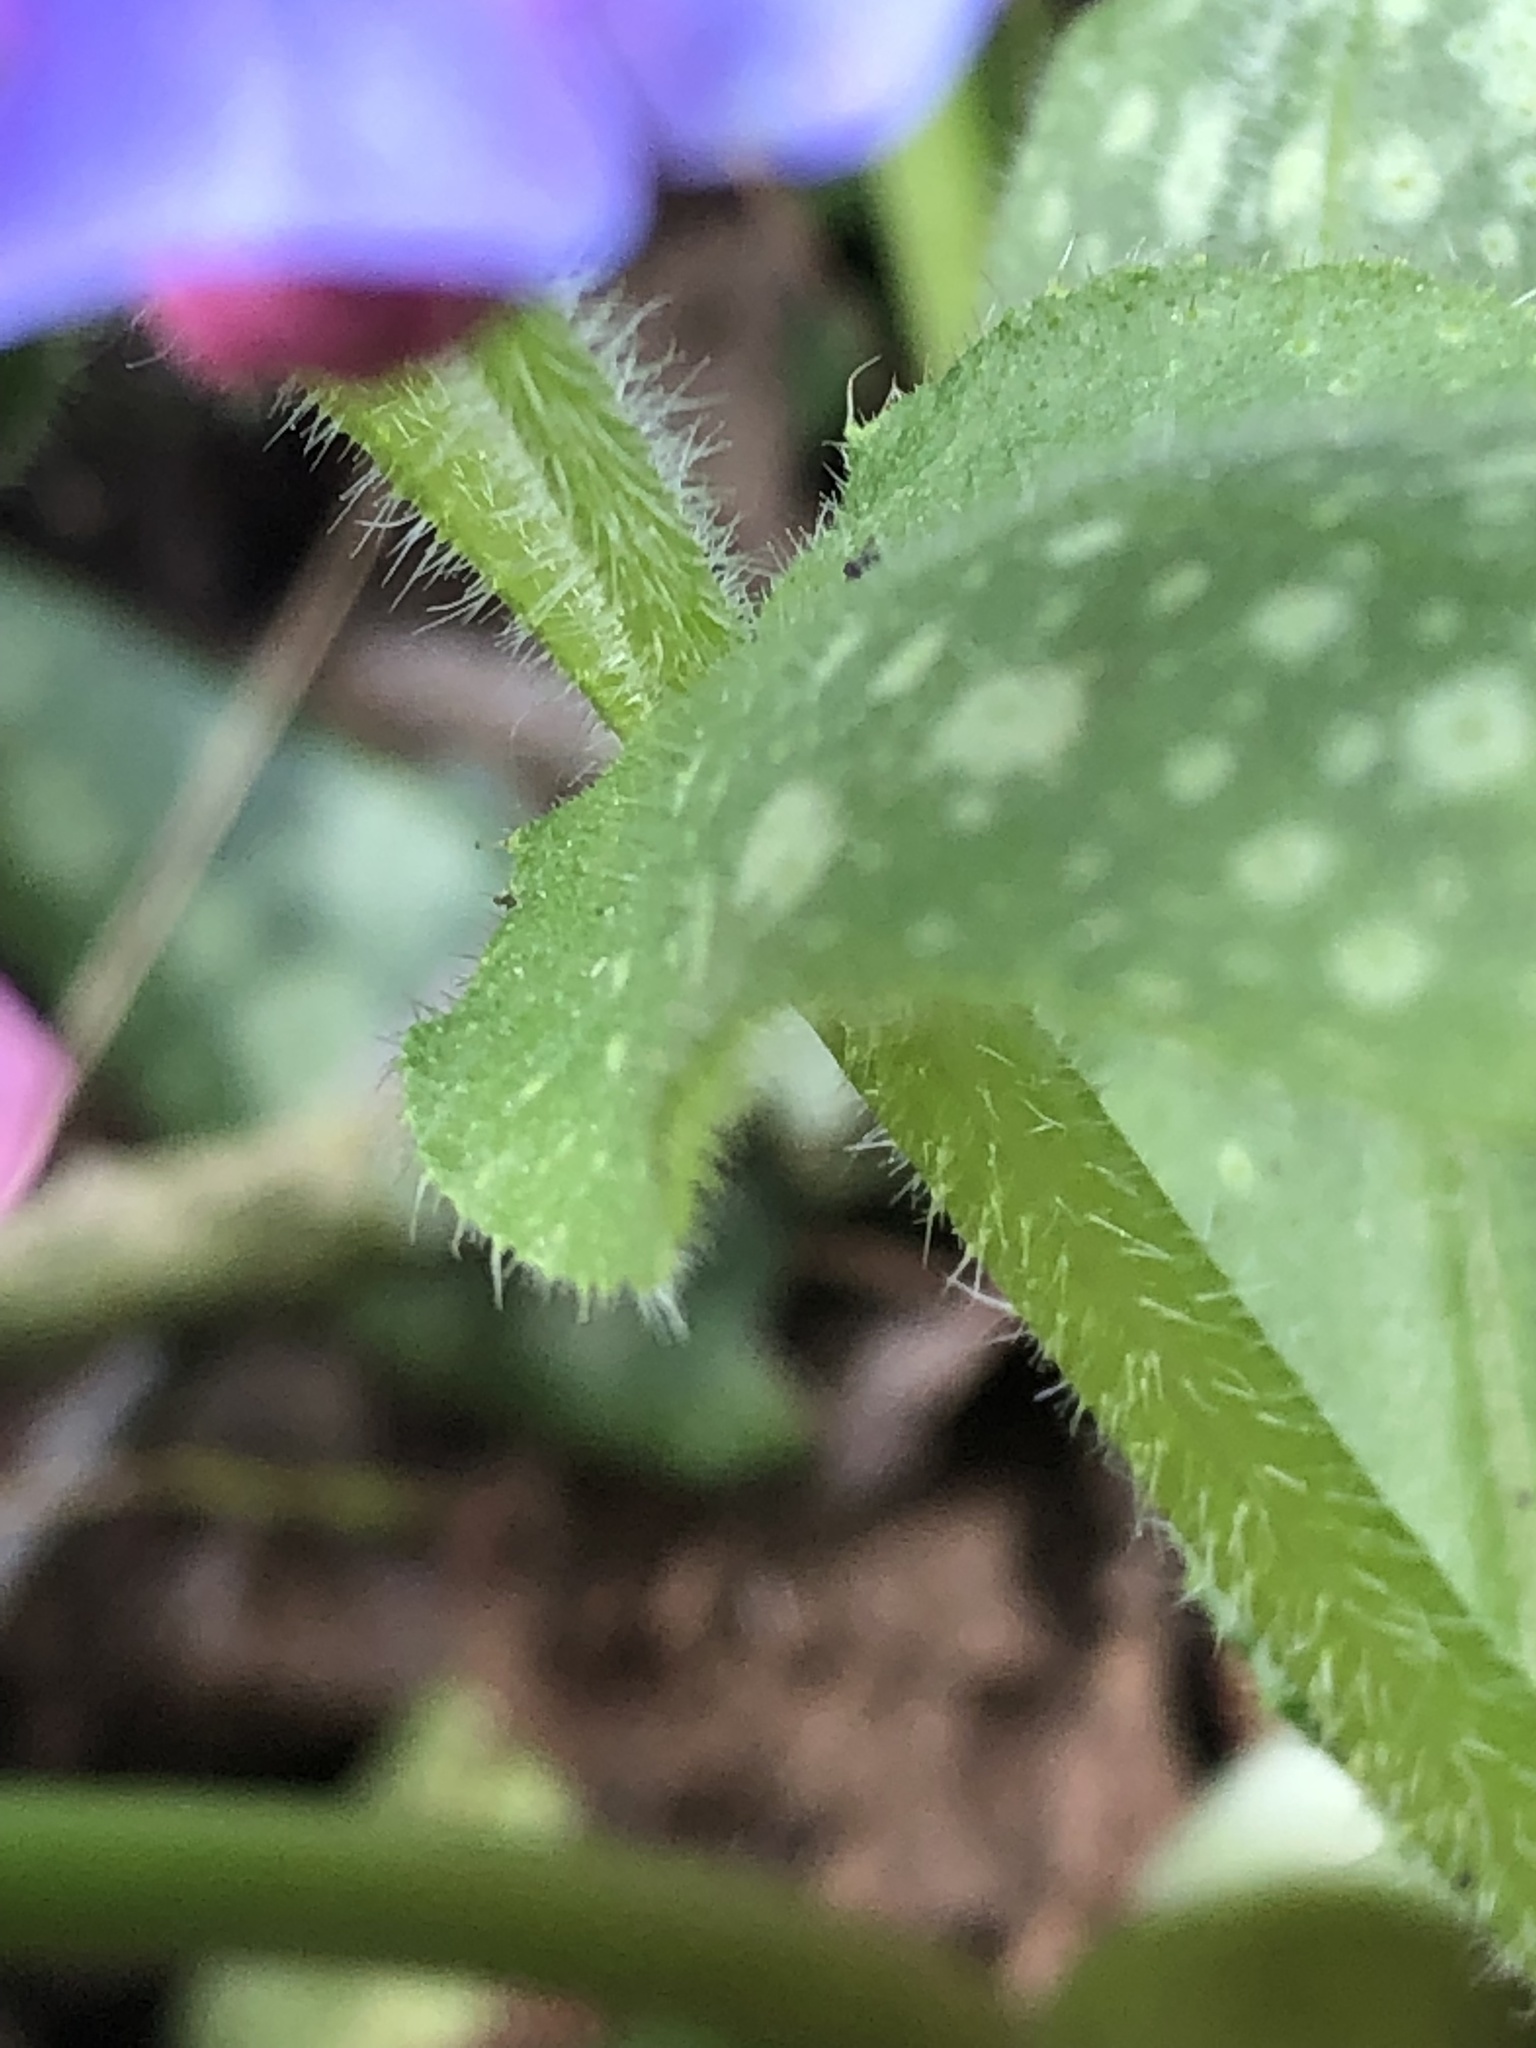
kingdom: Plantae
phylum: Tracheophyta
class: Magnoliopsida
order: Boraginales
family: Boraginaceae
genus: Pulmonaria
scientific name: Pulmonaria officinalis
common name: Lungwort
